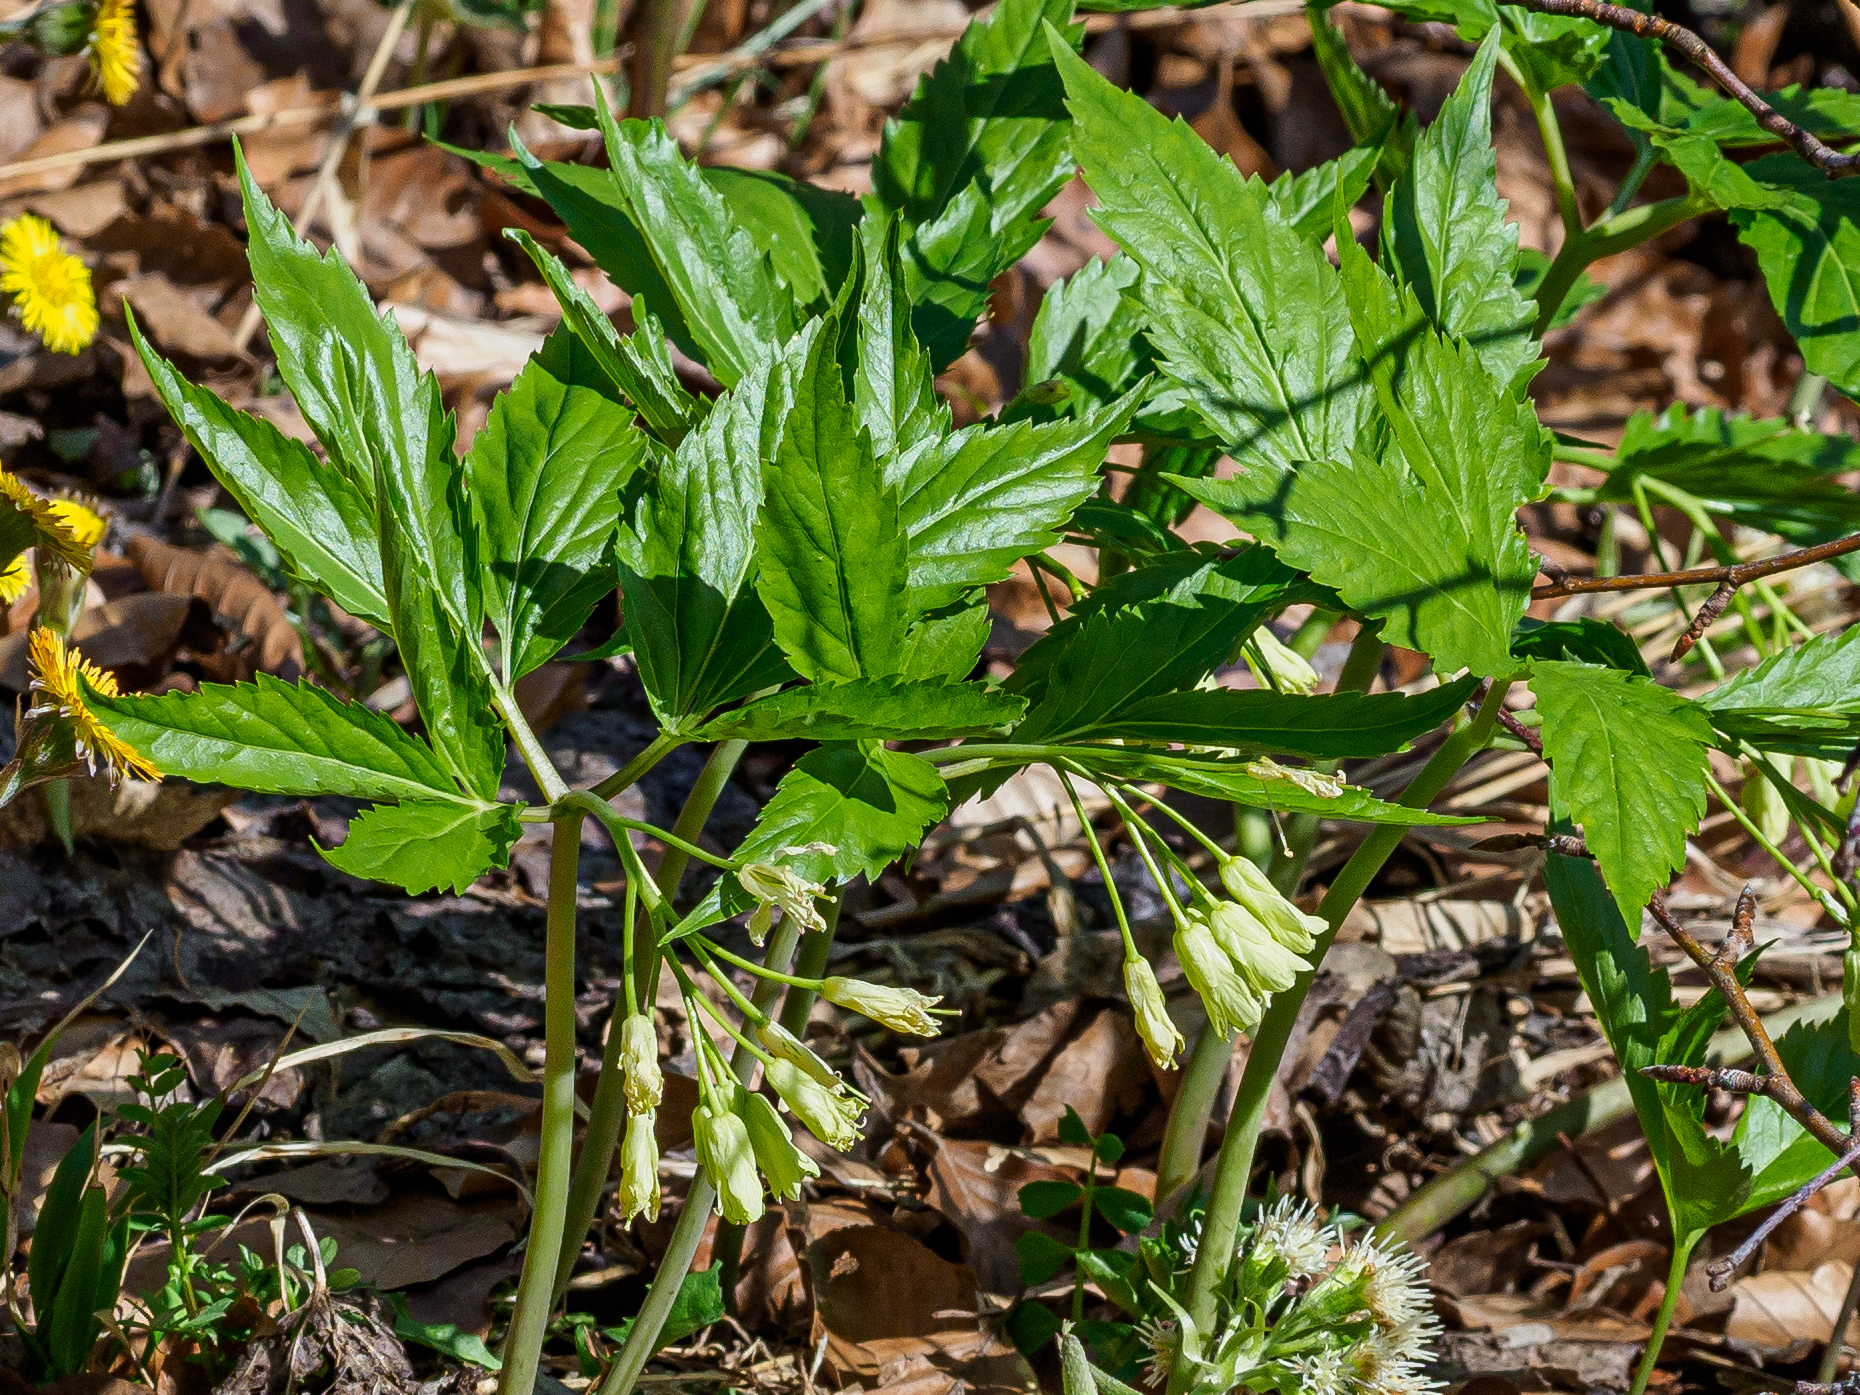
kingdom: Plantae
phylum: Tracheophyta
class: Magnoliopsida
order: Brassicales
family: Brassicaceae
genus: Cardamine
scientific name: Cardamine enneaphyllos
